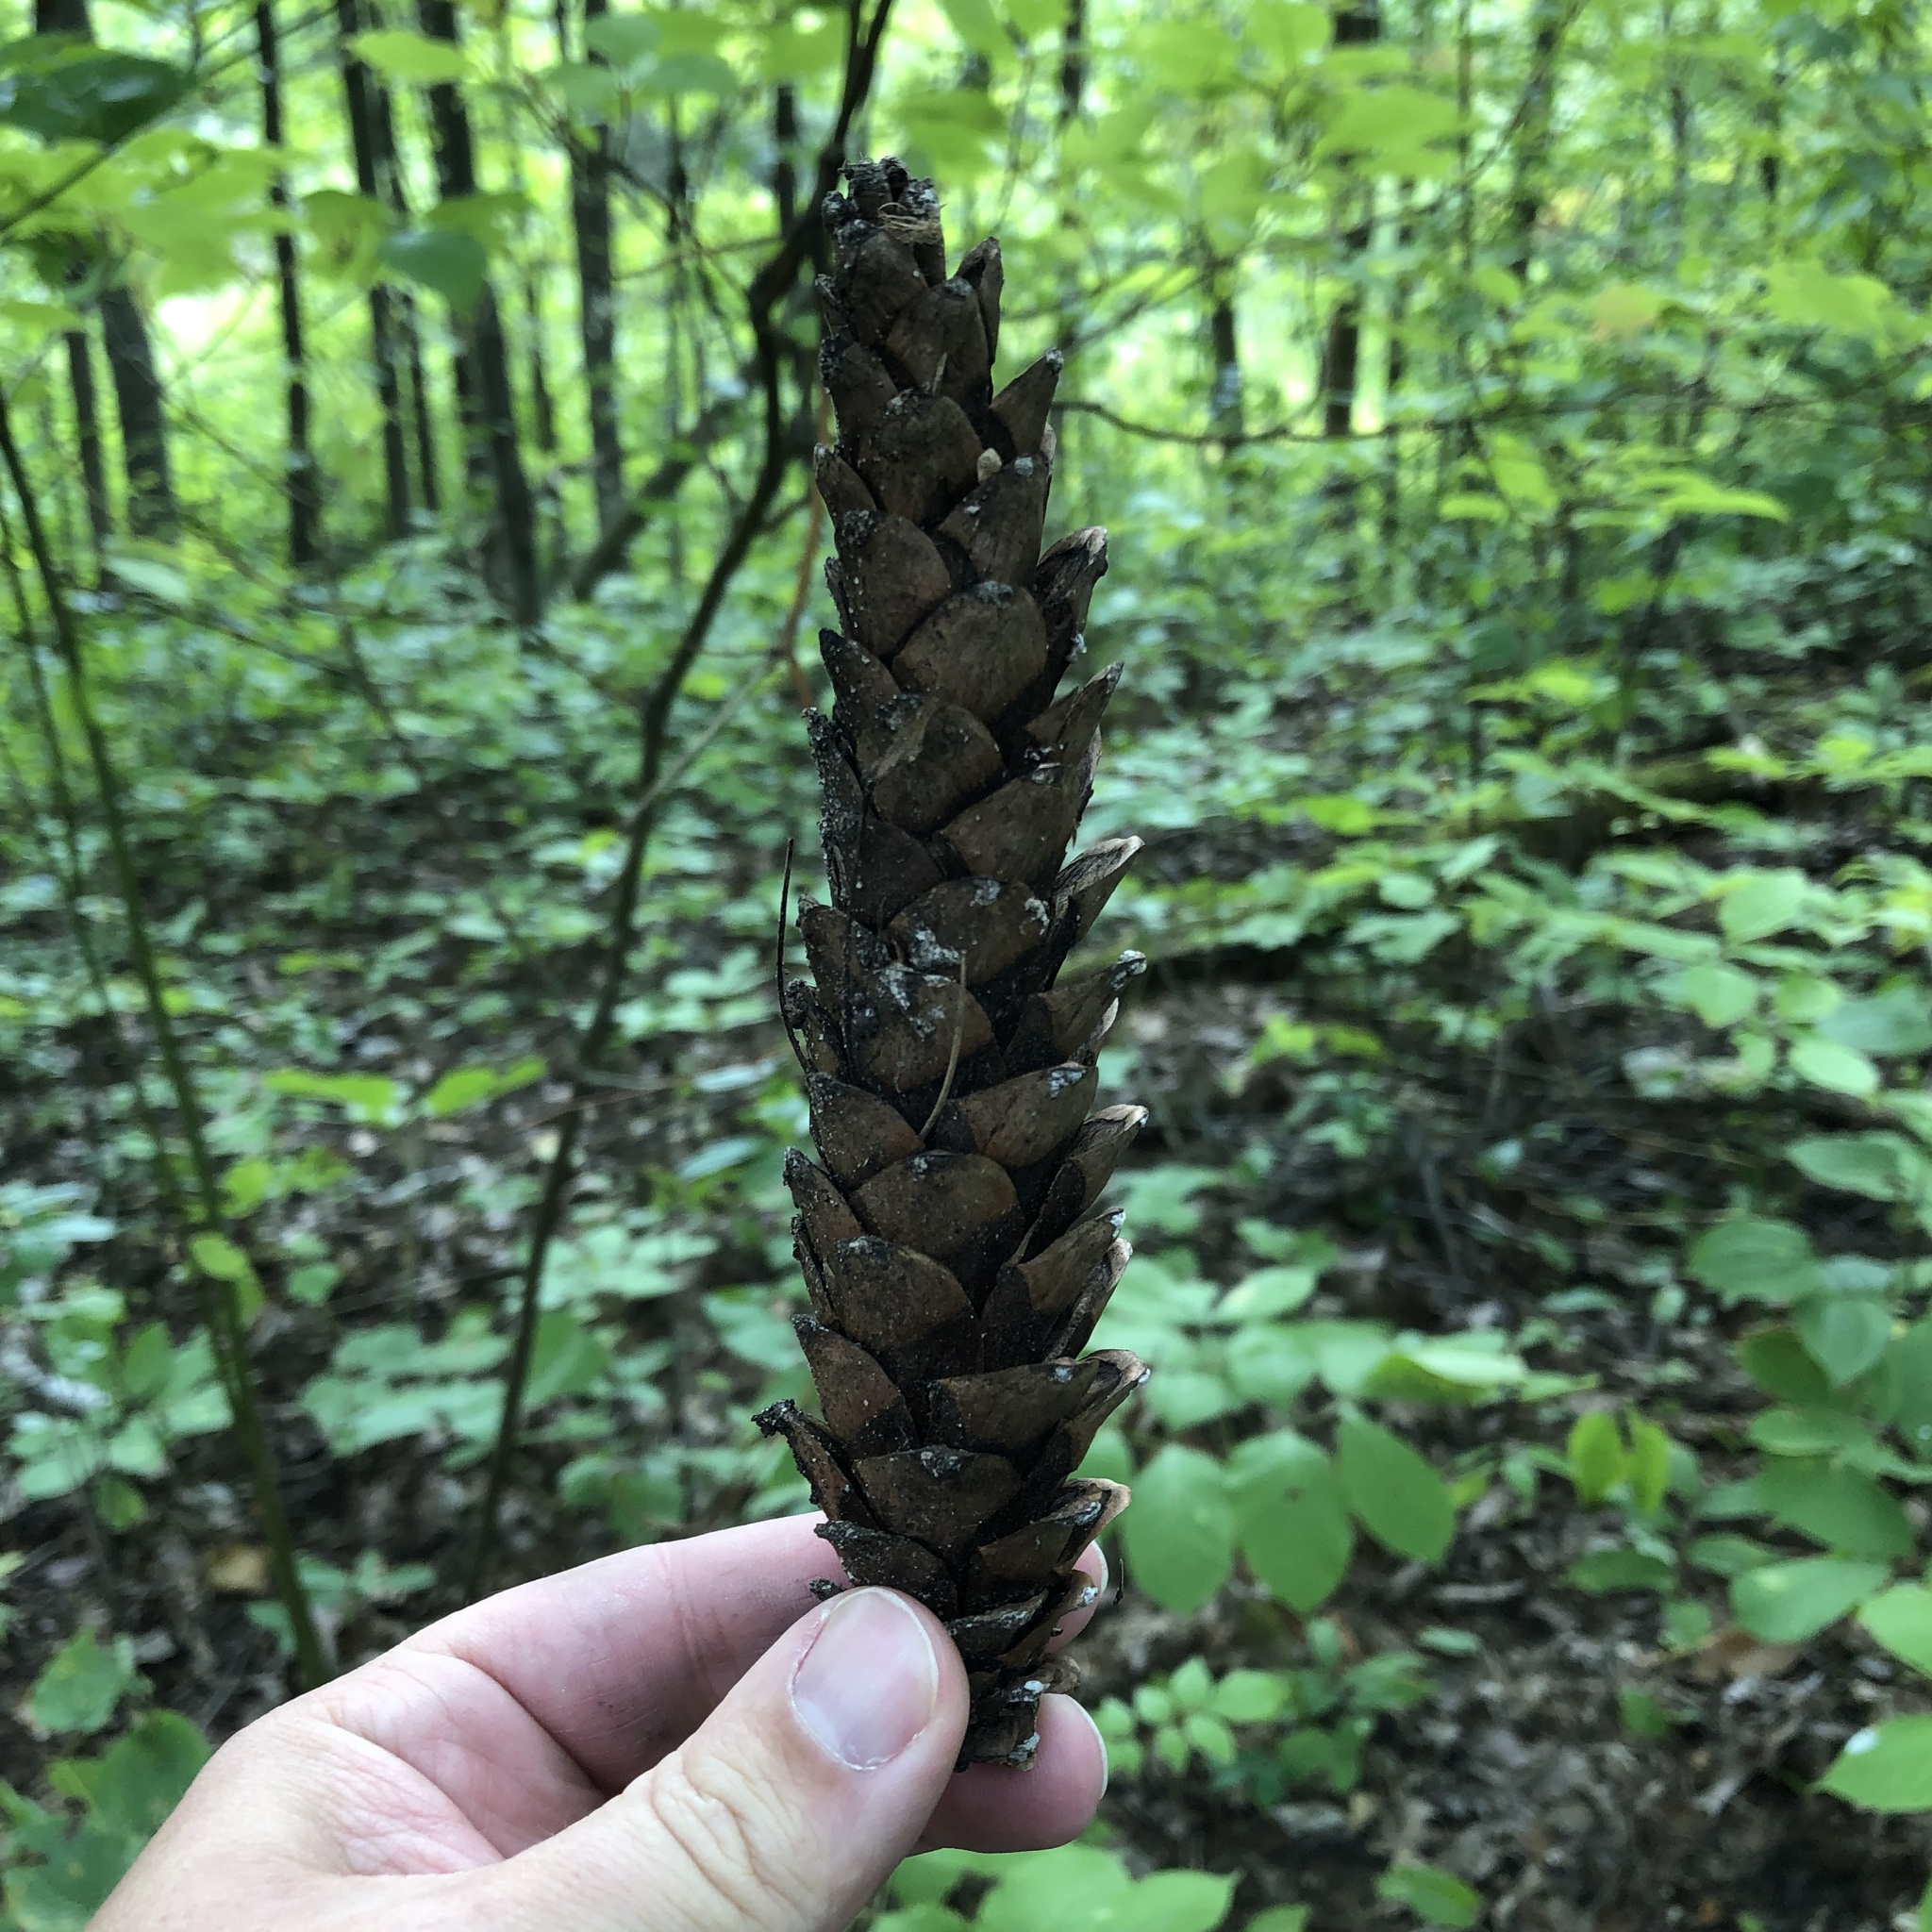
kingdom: Plantae
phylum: Tracheophyta
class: Pinopsida
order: Pinales
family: Pinaceae
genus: Pinus
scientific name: Pinus strobus
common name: Weymouth pine
